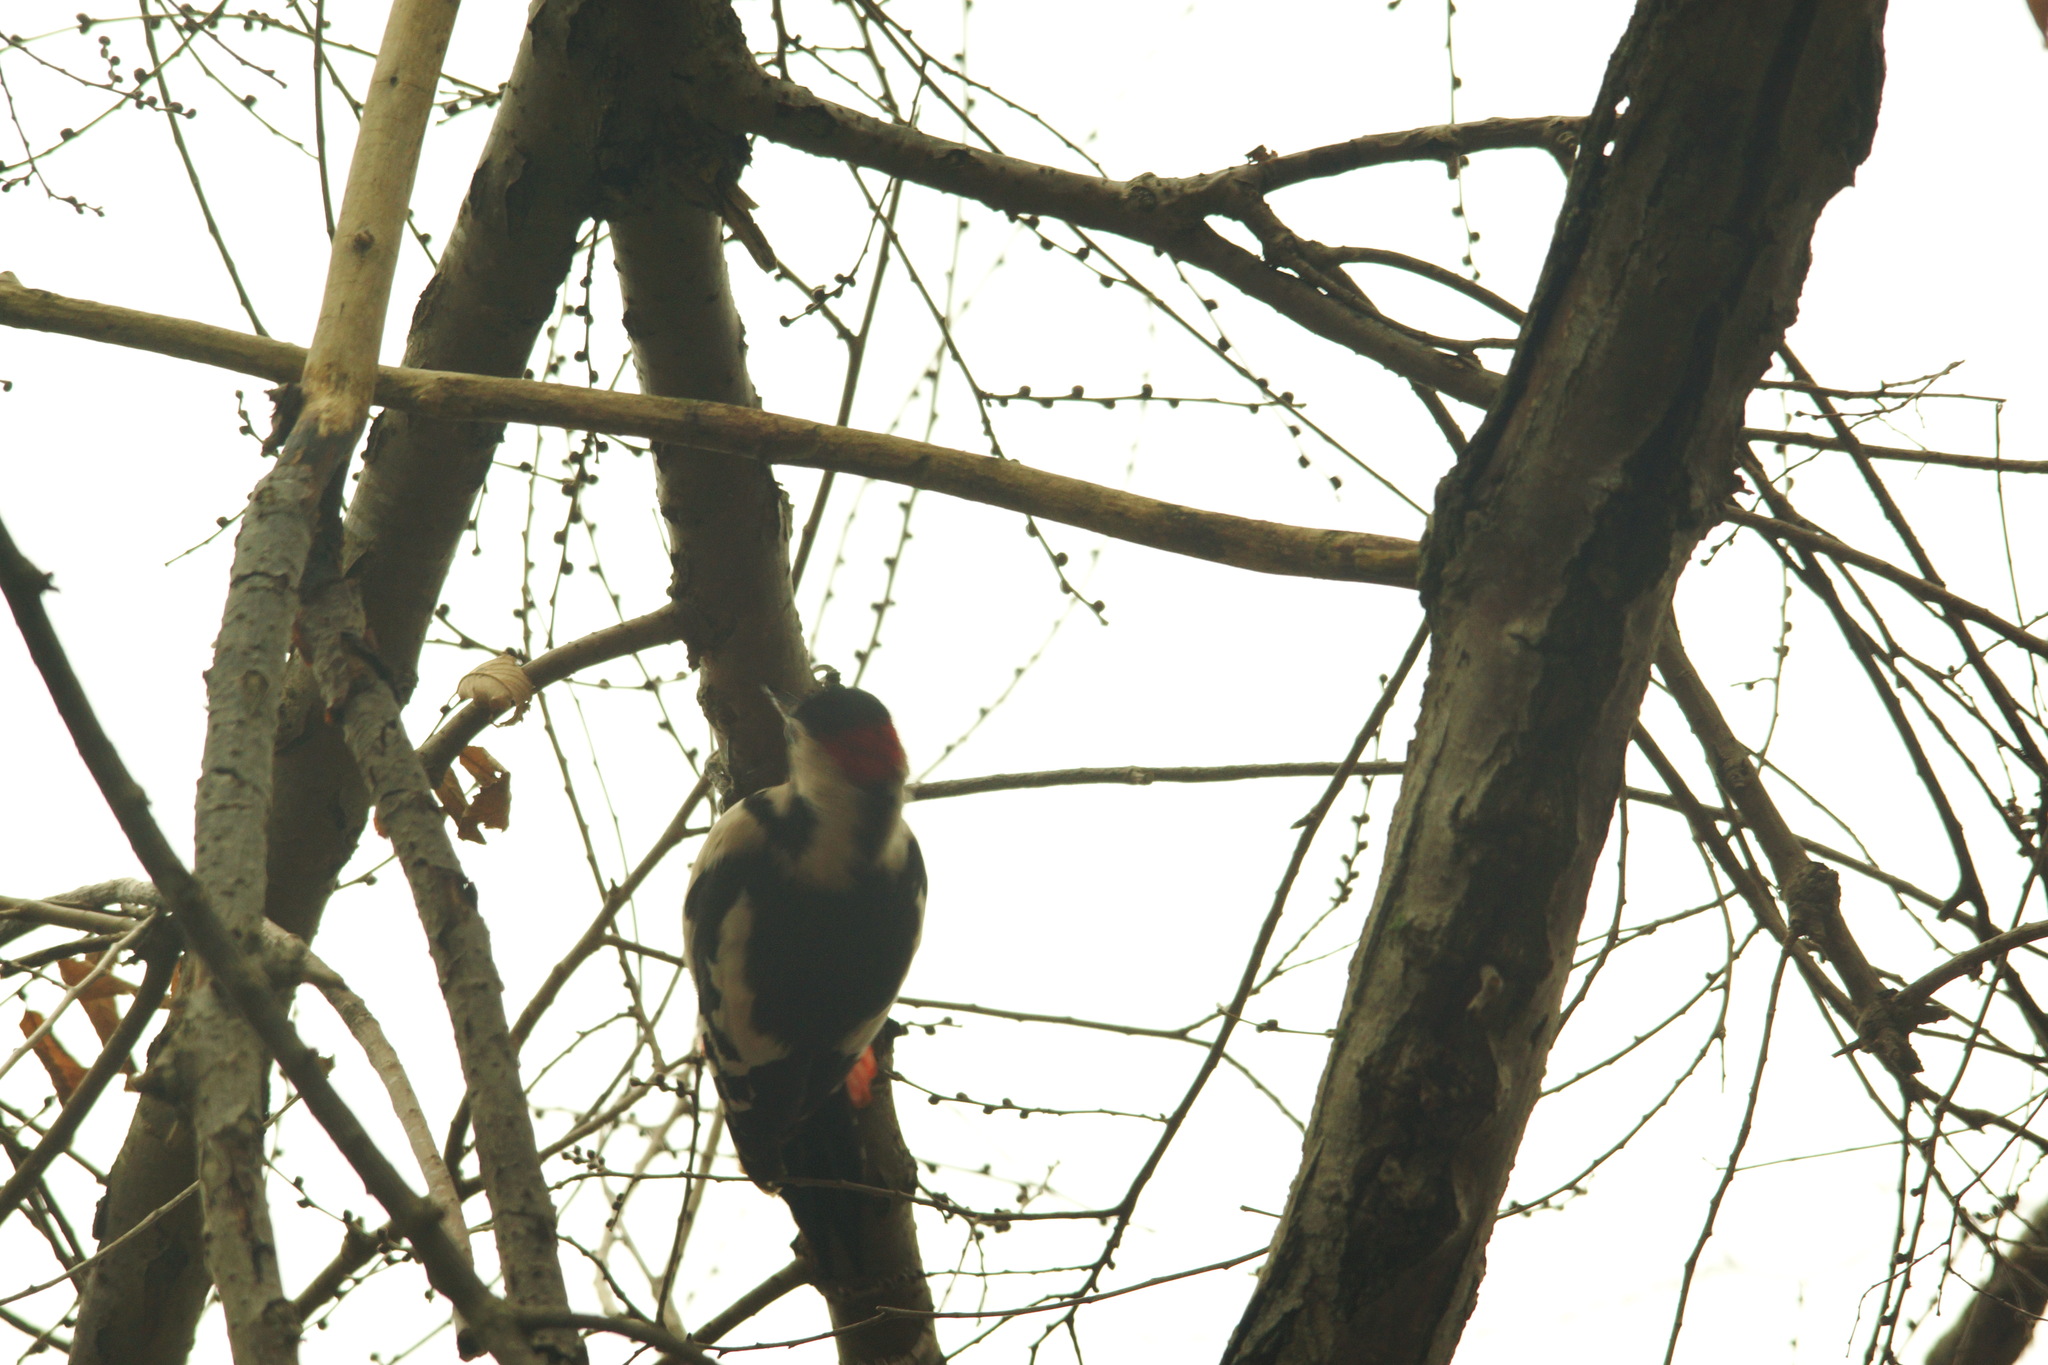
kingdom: Animalia
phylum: Chordata
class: Aves
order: Piciformes
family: Picidae
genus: Dendrocopos
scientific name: Dendrocopos syriacus
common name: Syrian woodpecker
